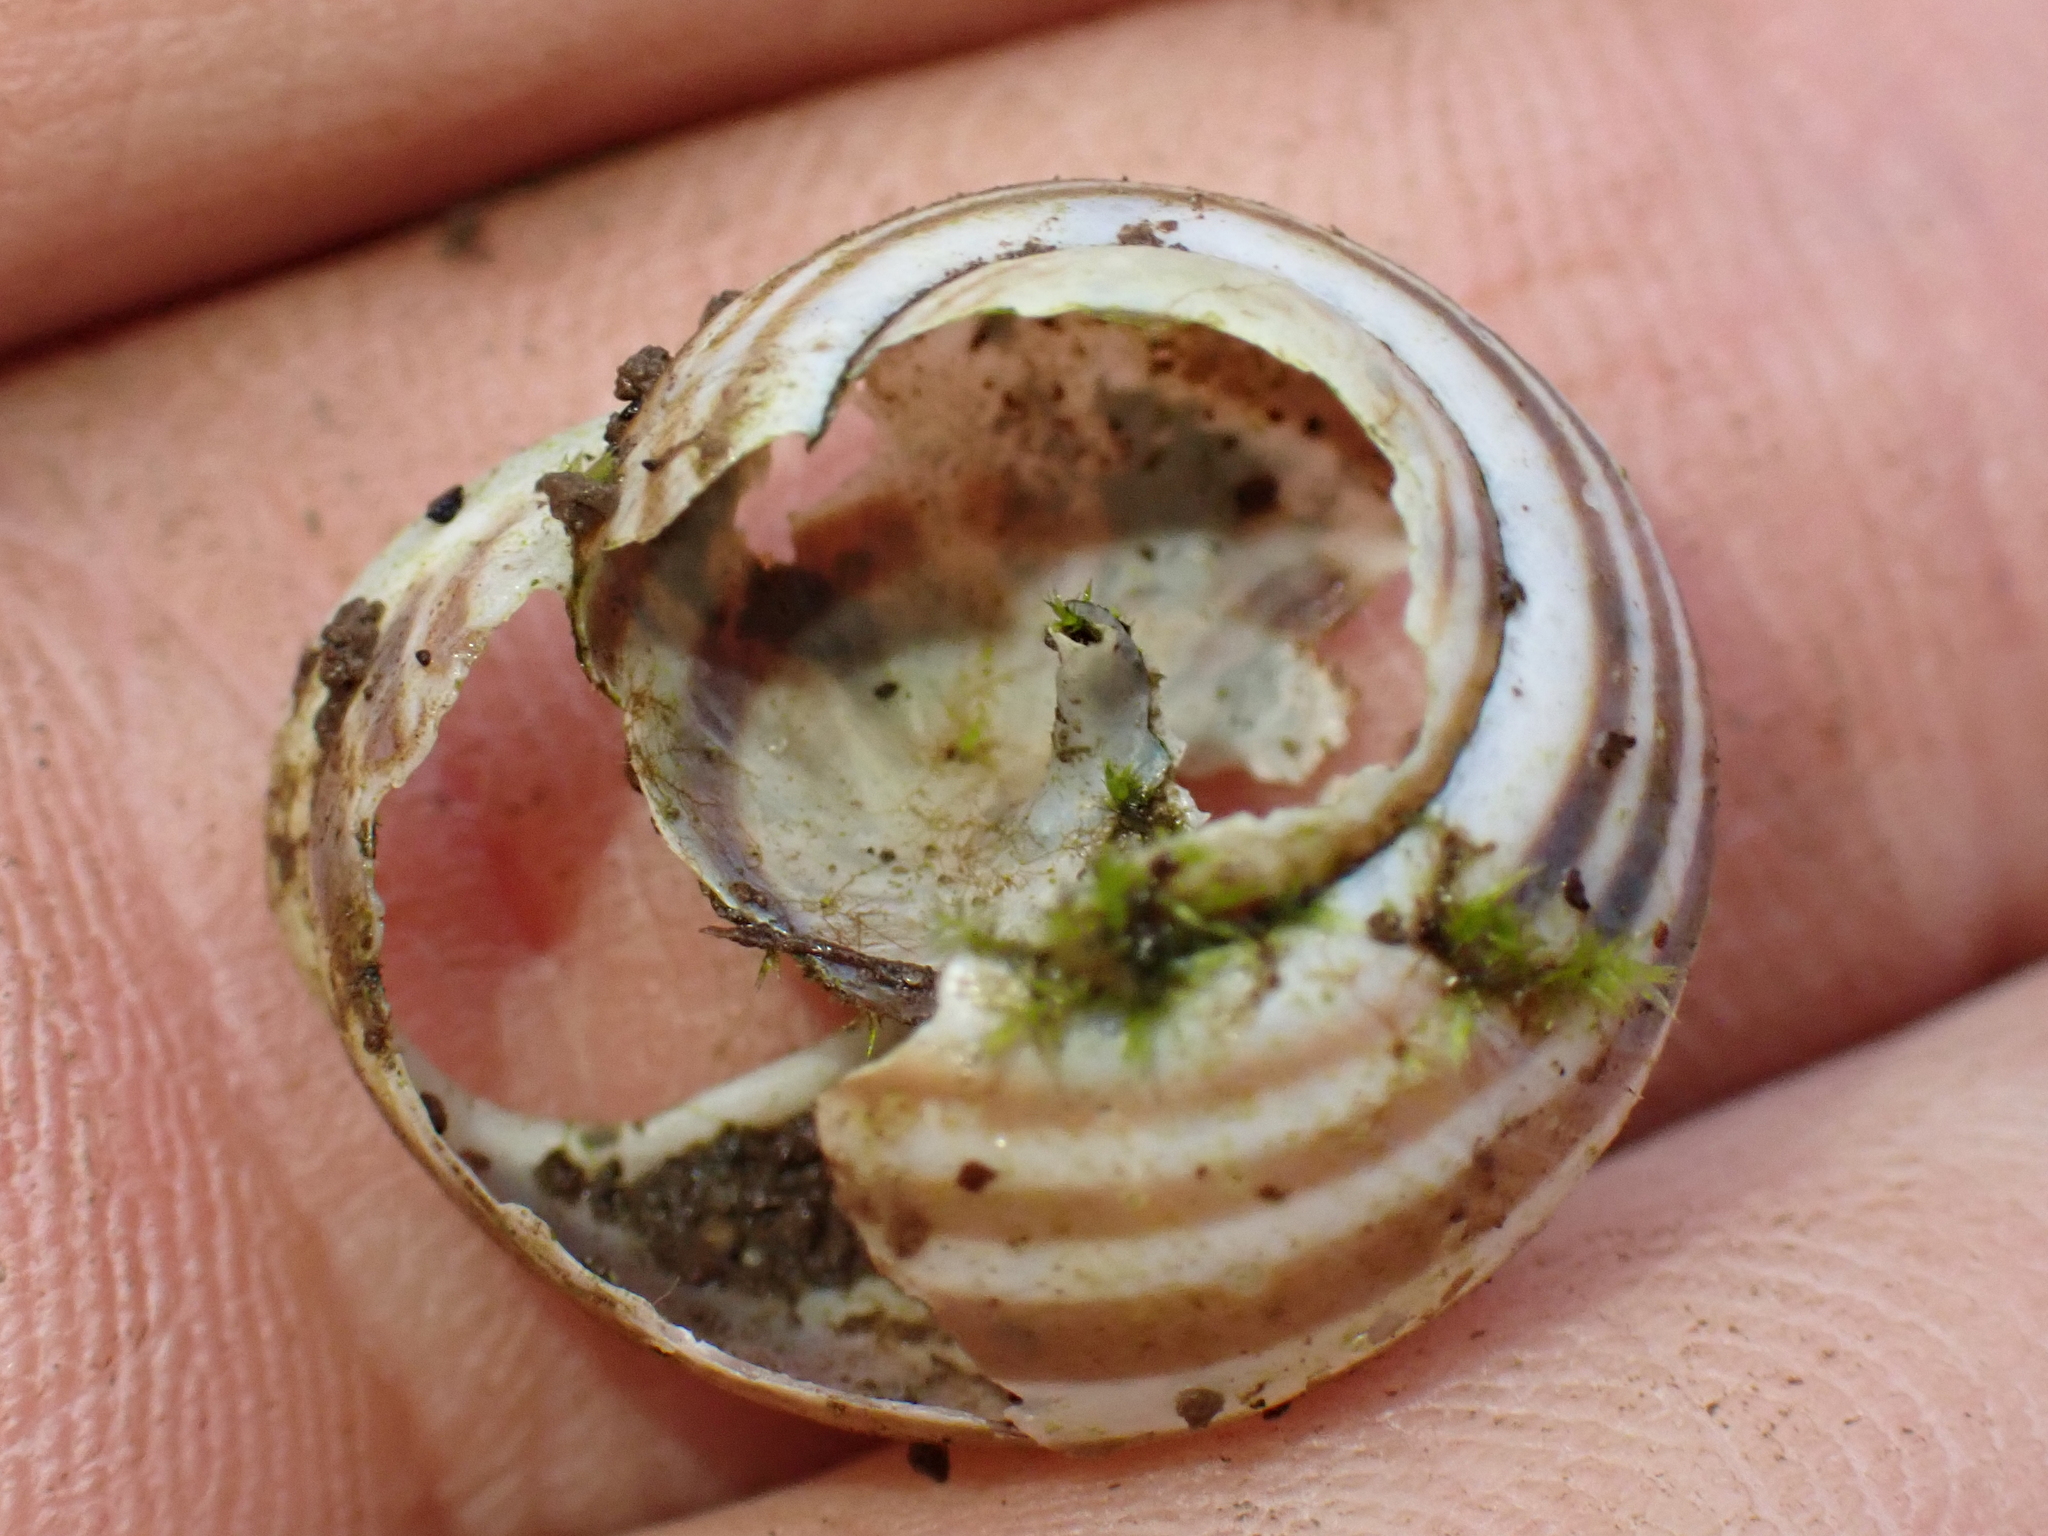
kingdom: Animalia
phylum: Mollusca
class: Gastropoda
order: Stylommatophora
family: Helicidae
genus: Cepaea
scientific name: Cepaea hortensis
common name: White-lip gardensnail
